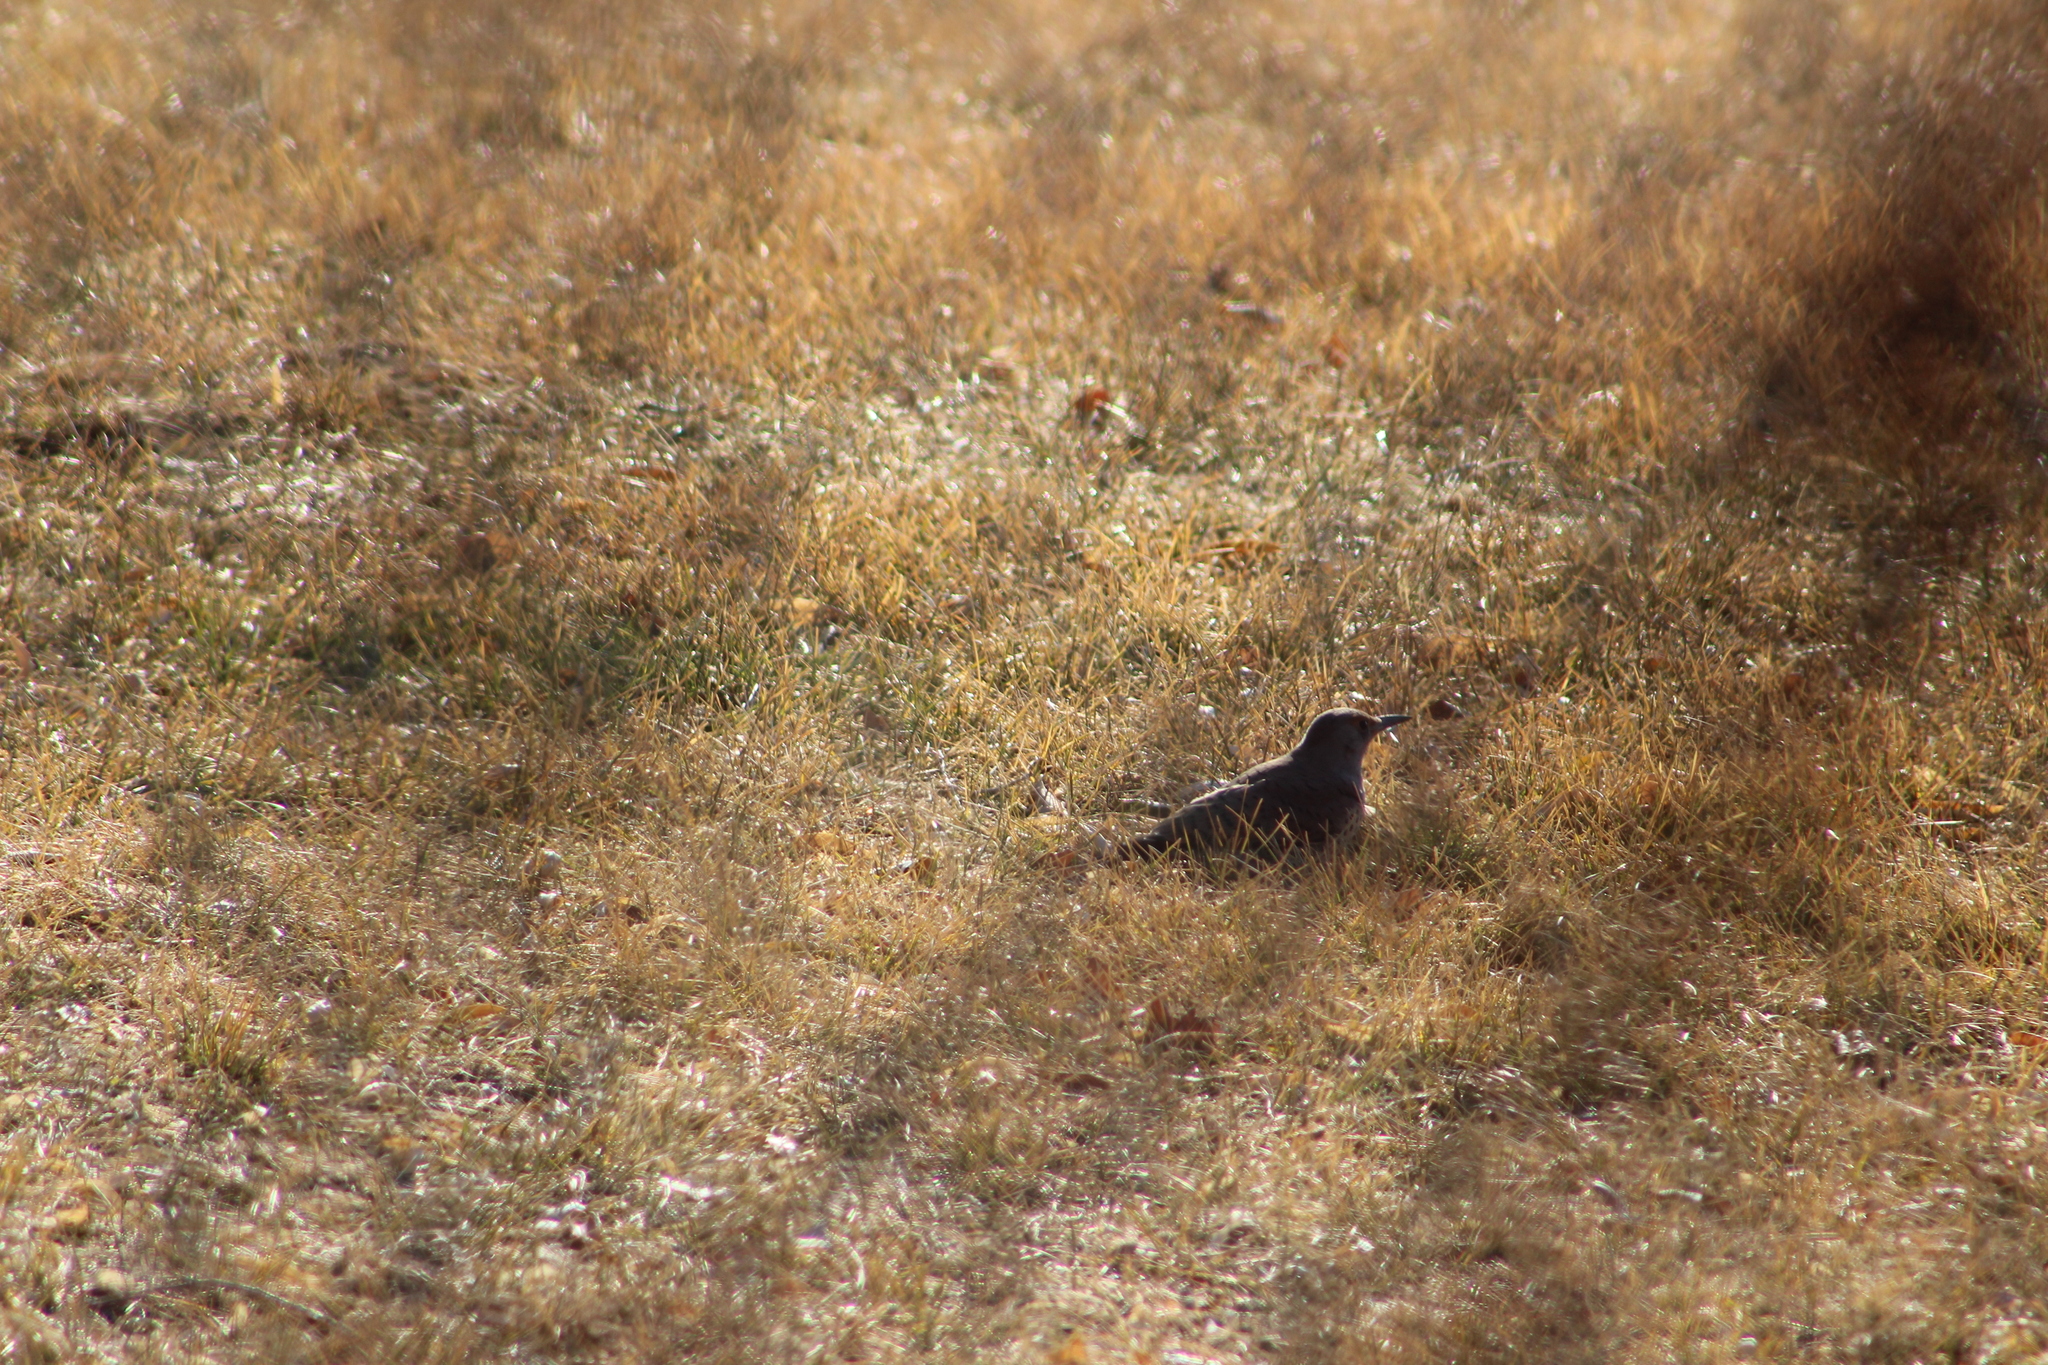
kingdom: Animalia
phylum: Chordata
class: Aves
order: Piciformes
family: Picidae
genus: Colaptes
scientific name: Colaptes auratus
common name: Northern flicker
